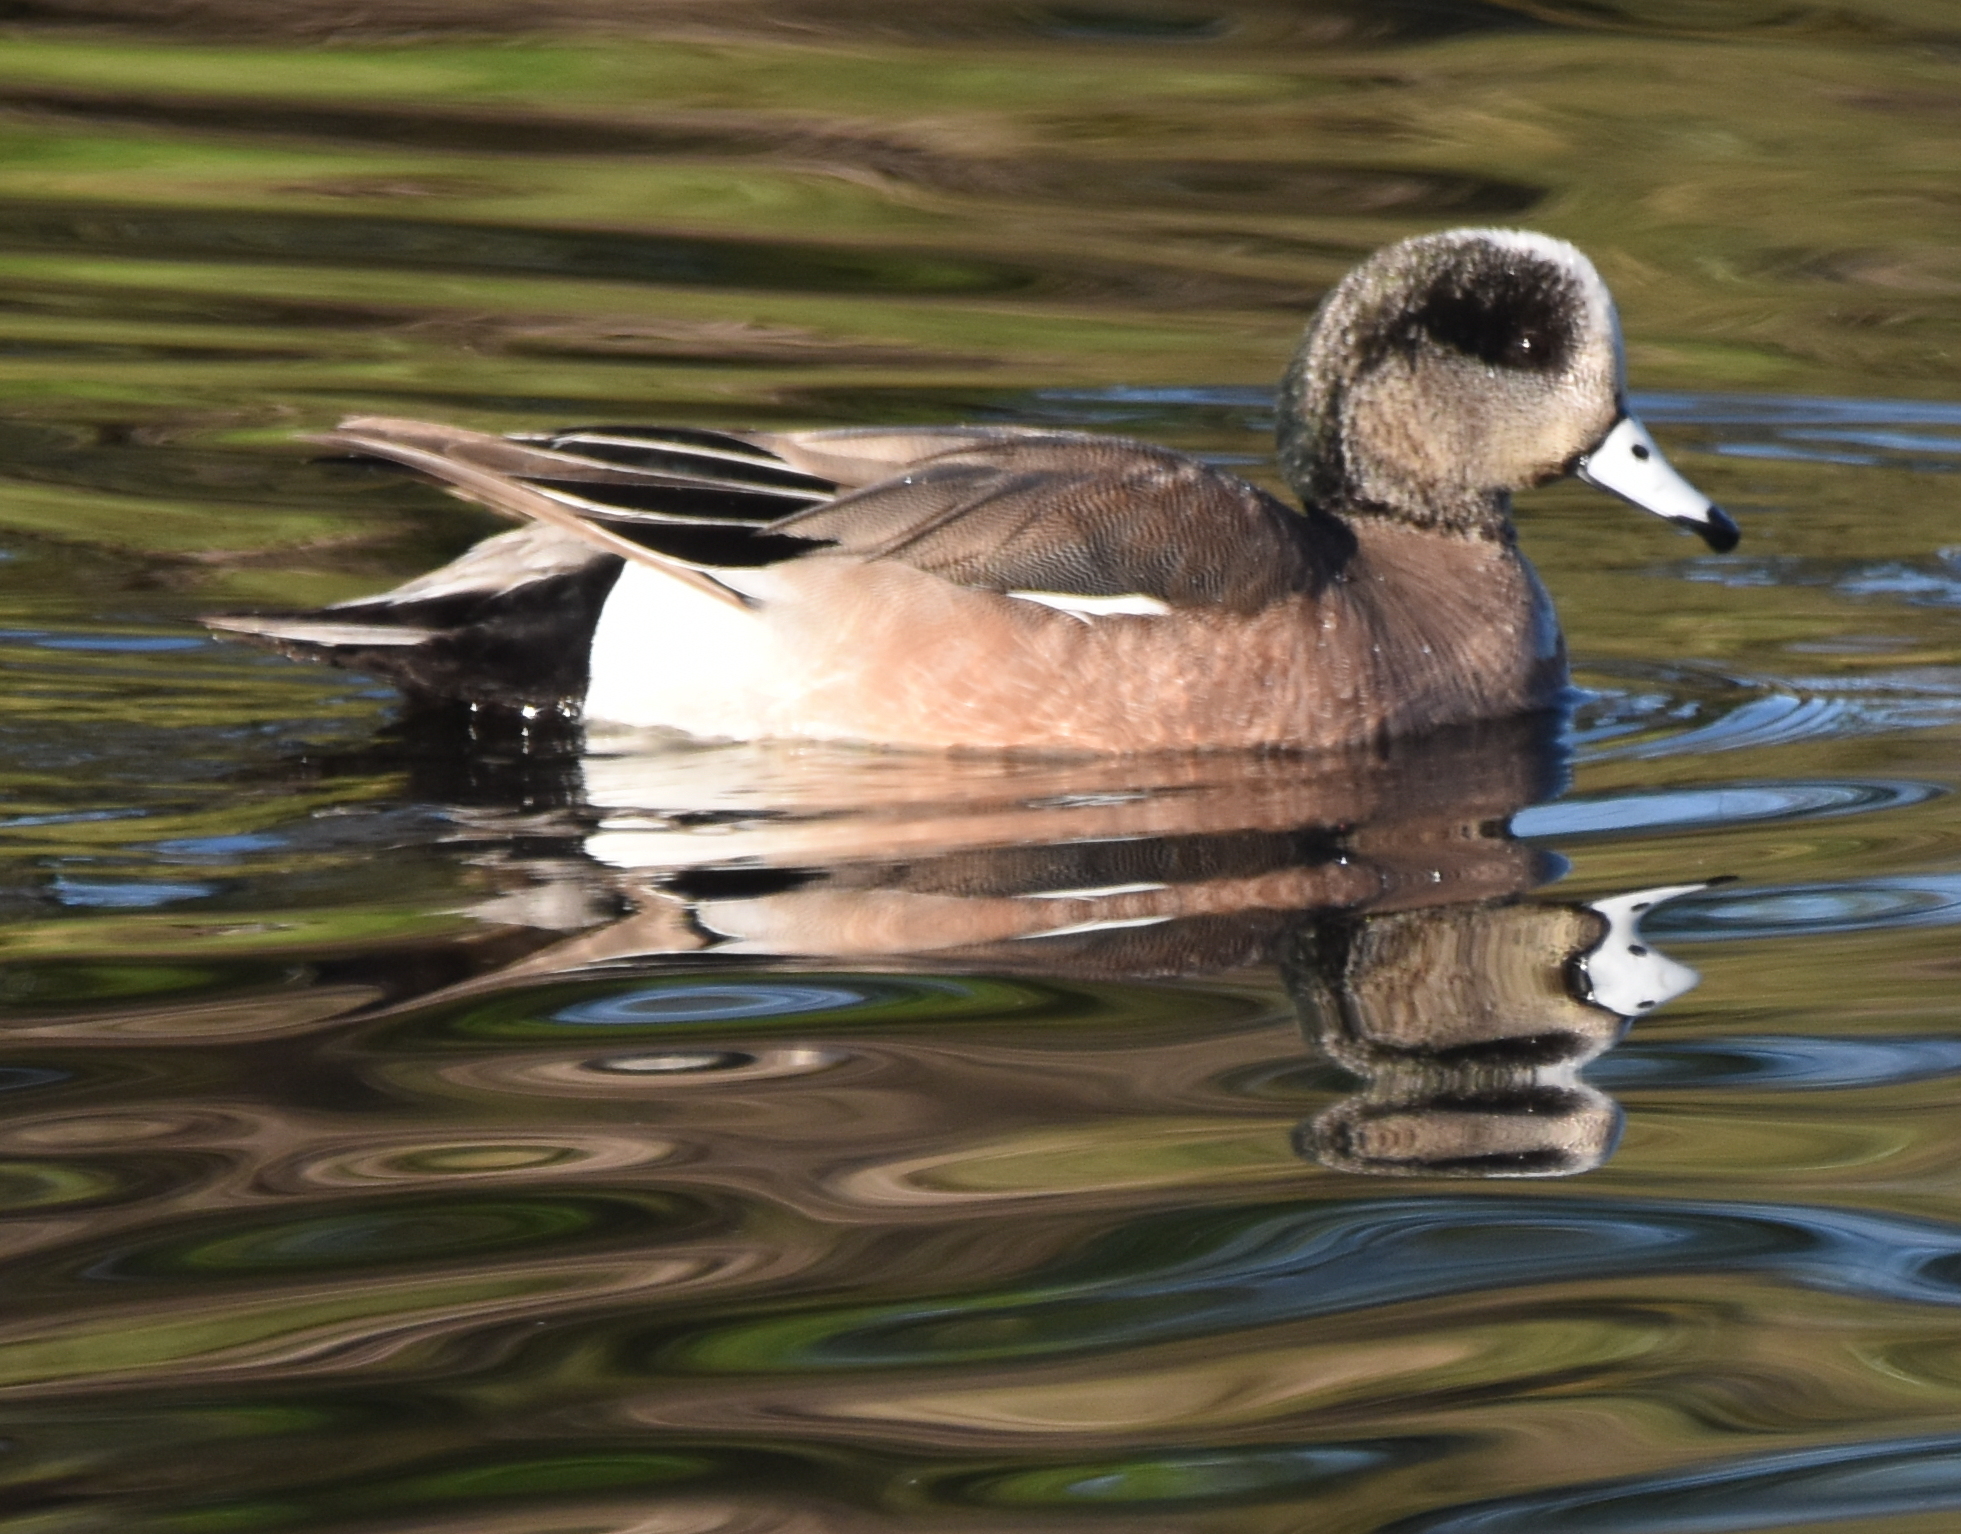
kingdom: Animalia
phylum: Chordata
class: Aves
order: Anseriformes
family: Anatidae
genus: Mareca
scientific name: Mareca americana
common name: American wigeon
